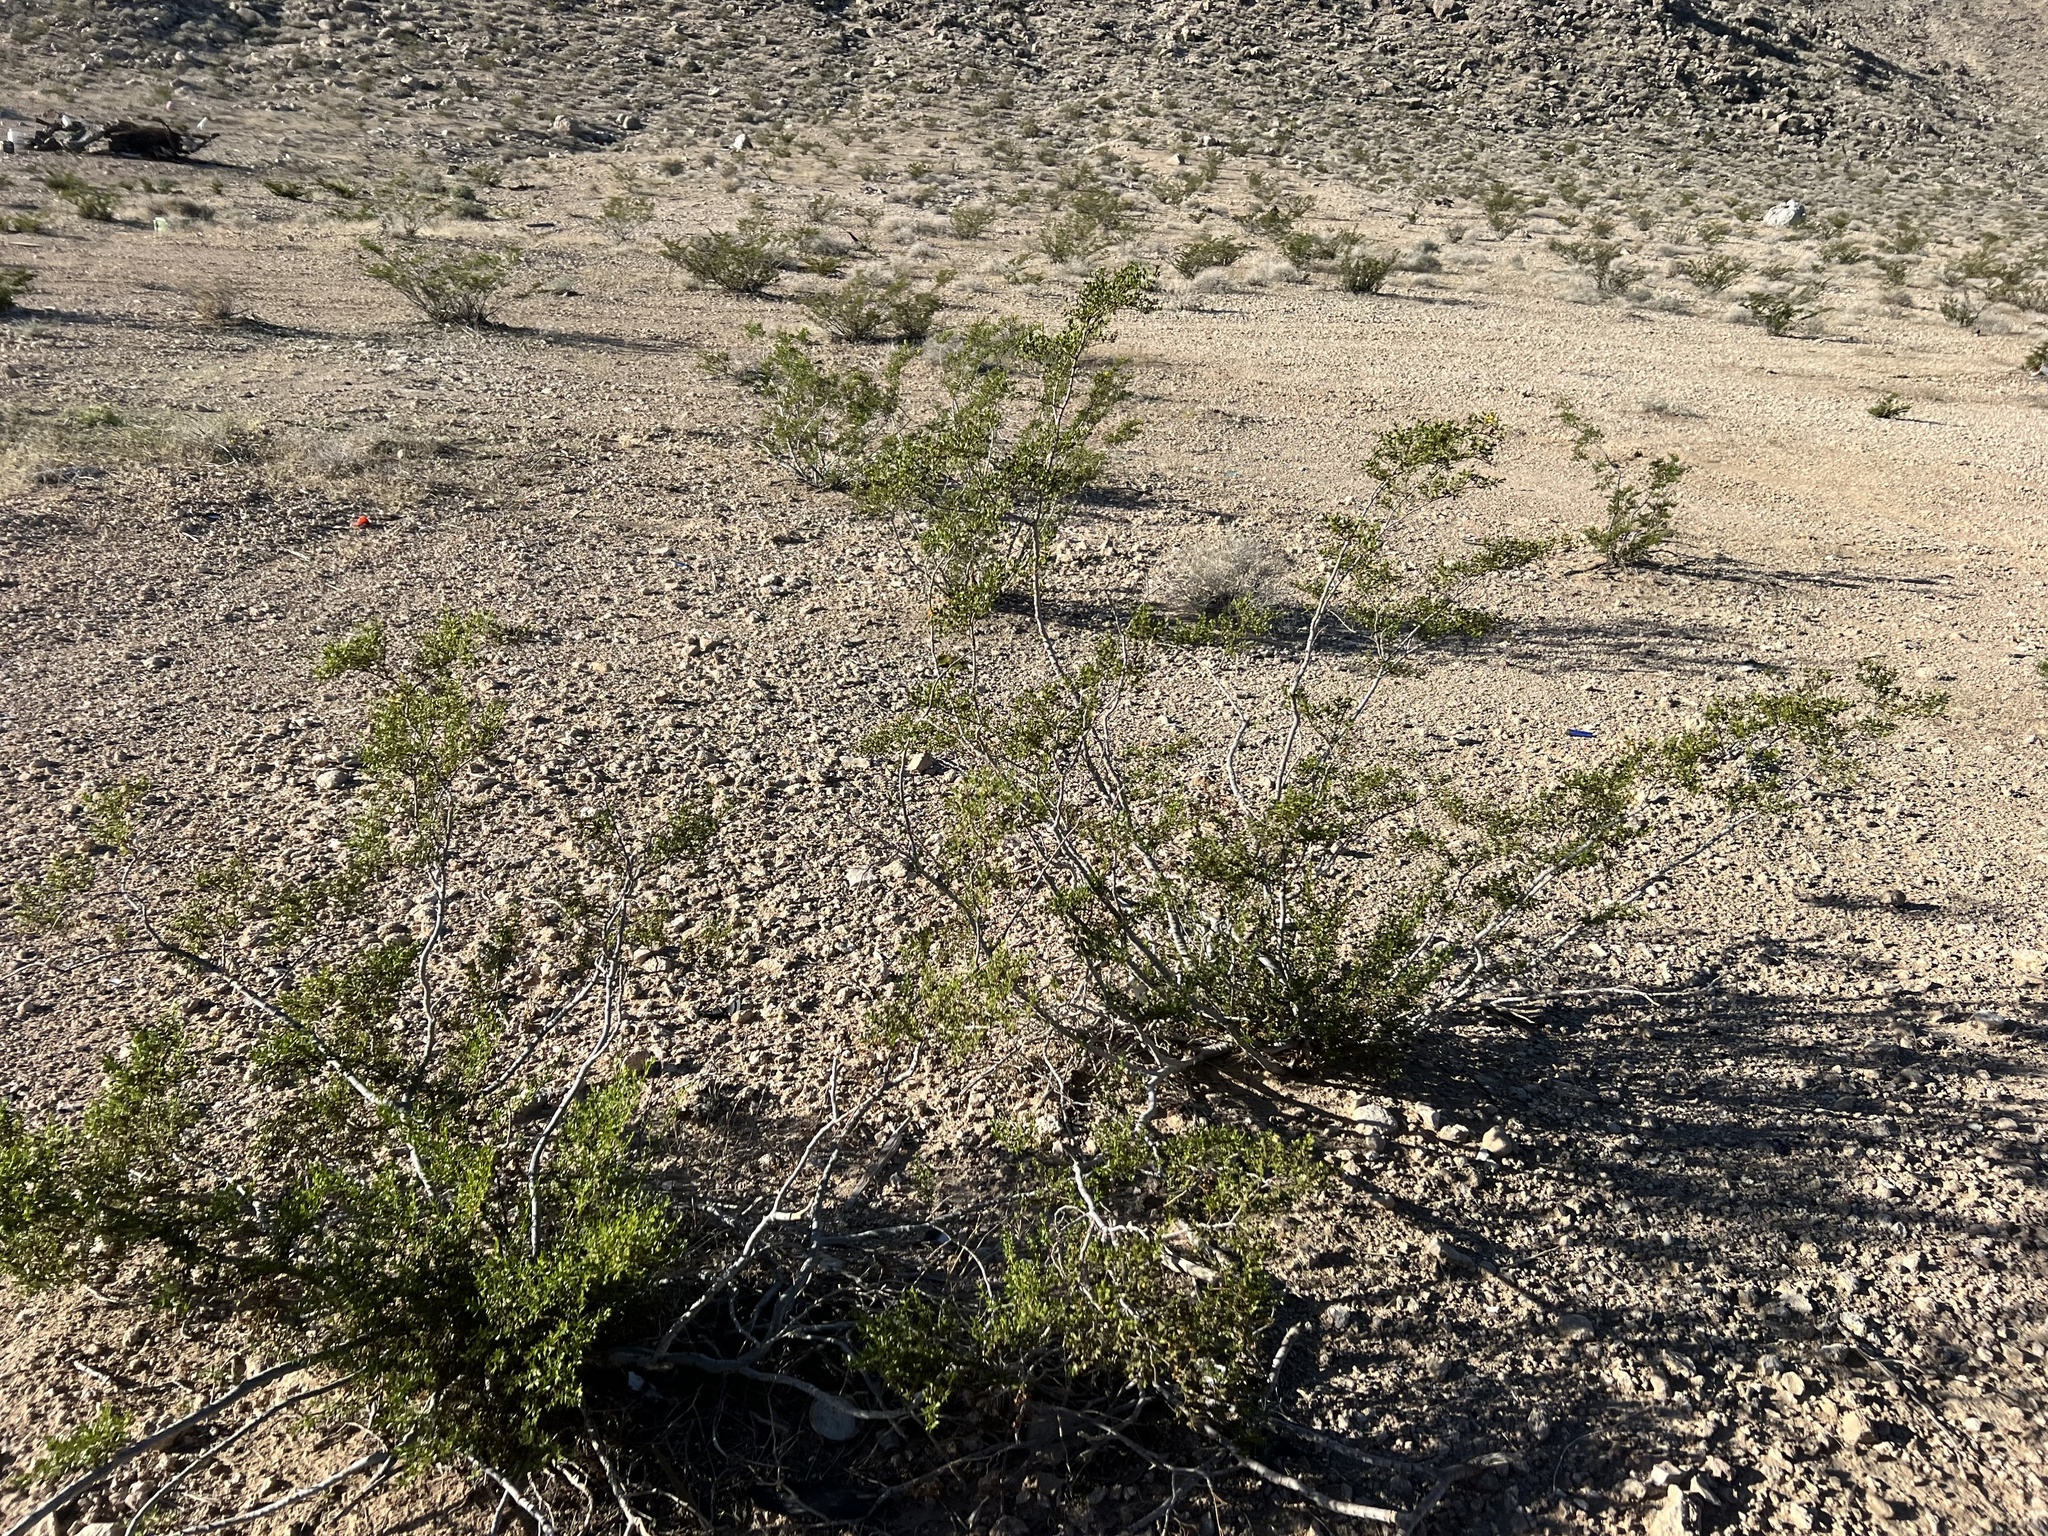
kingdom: Plantae
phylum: Tracheophyta
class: Magnoliopsida
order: Zygophyllales
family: Zygophyllaceae
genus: Larrea
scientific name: Larrea tridentata
